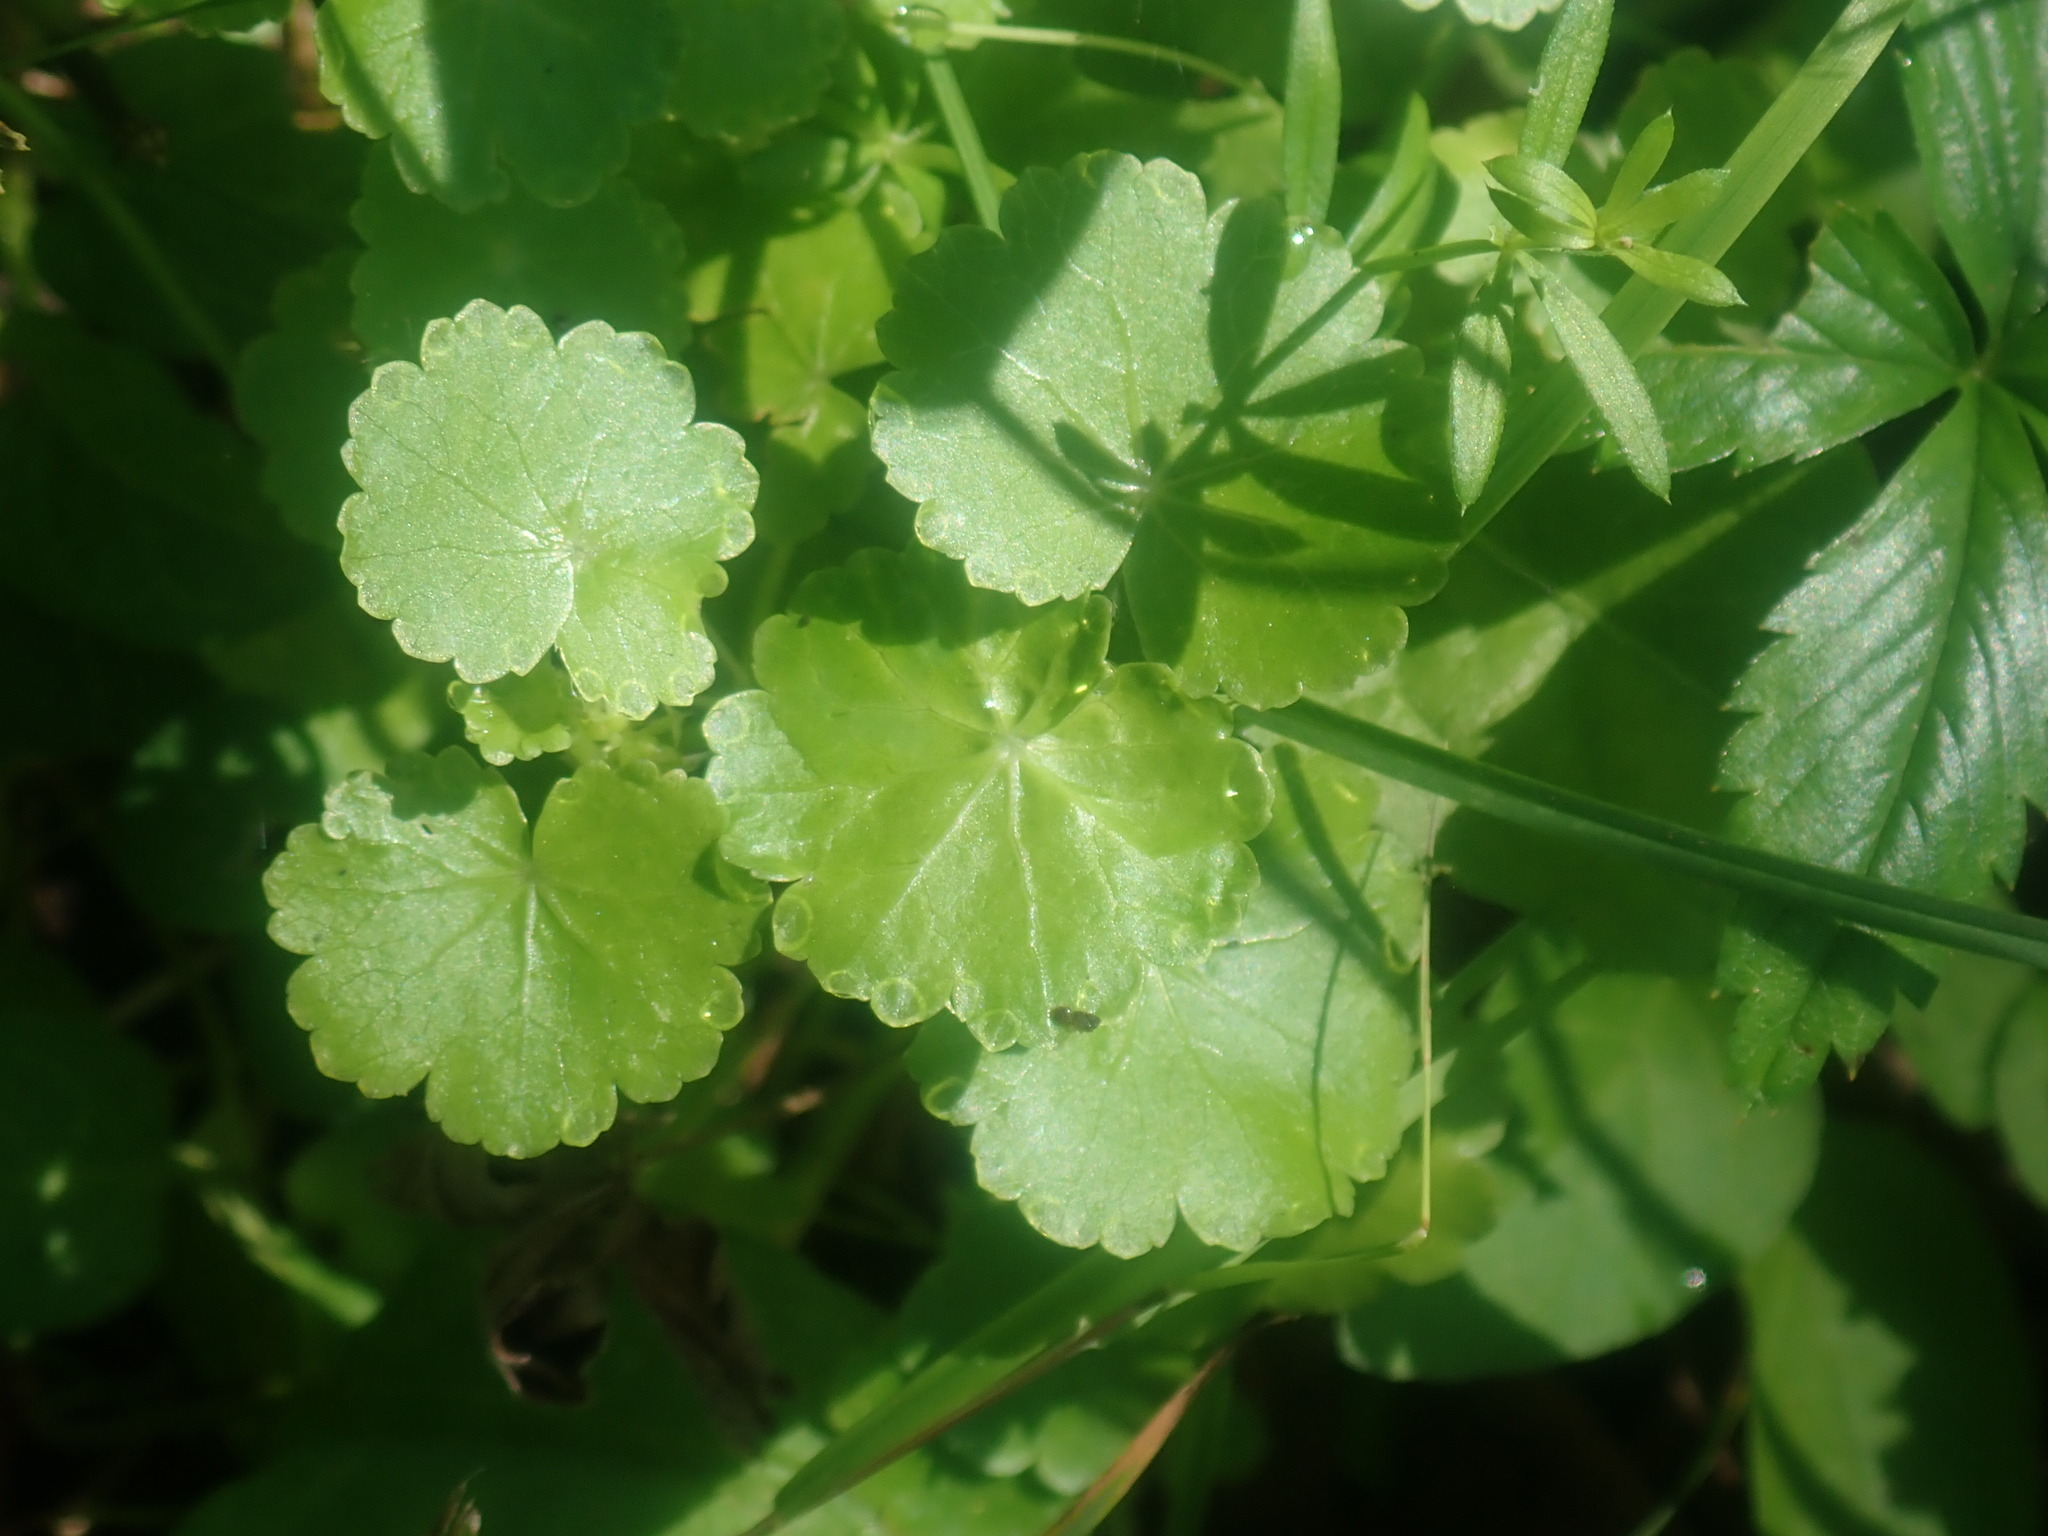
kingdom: Plantae
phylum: Tracheophyta
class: Magnoliopsida
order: Apiales
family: Araliaceae
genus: Hydrocotyle
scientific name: Hydrocotyle americana
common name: American water-pennywort
